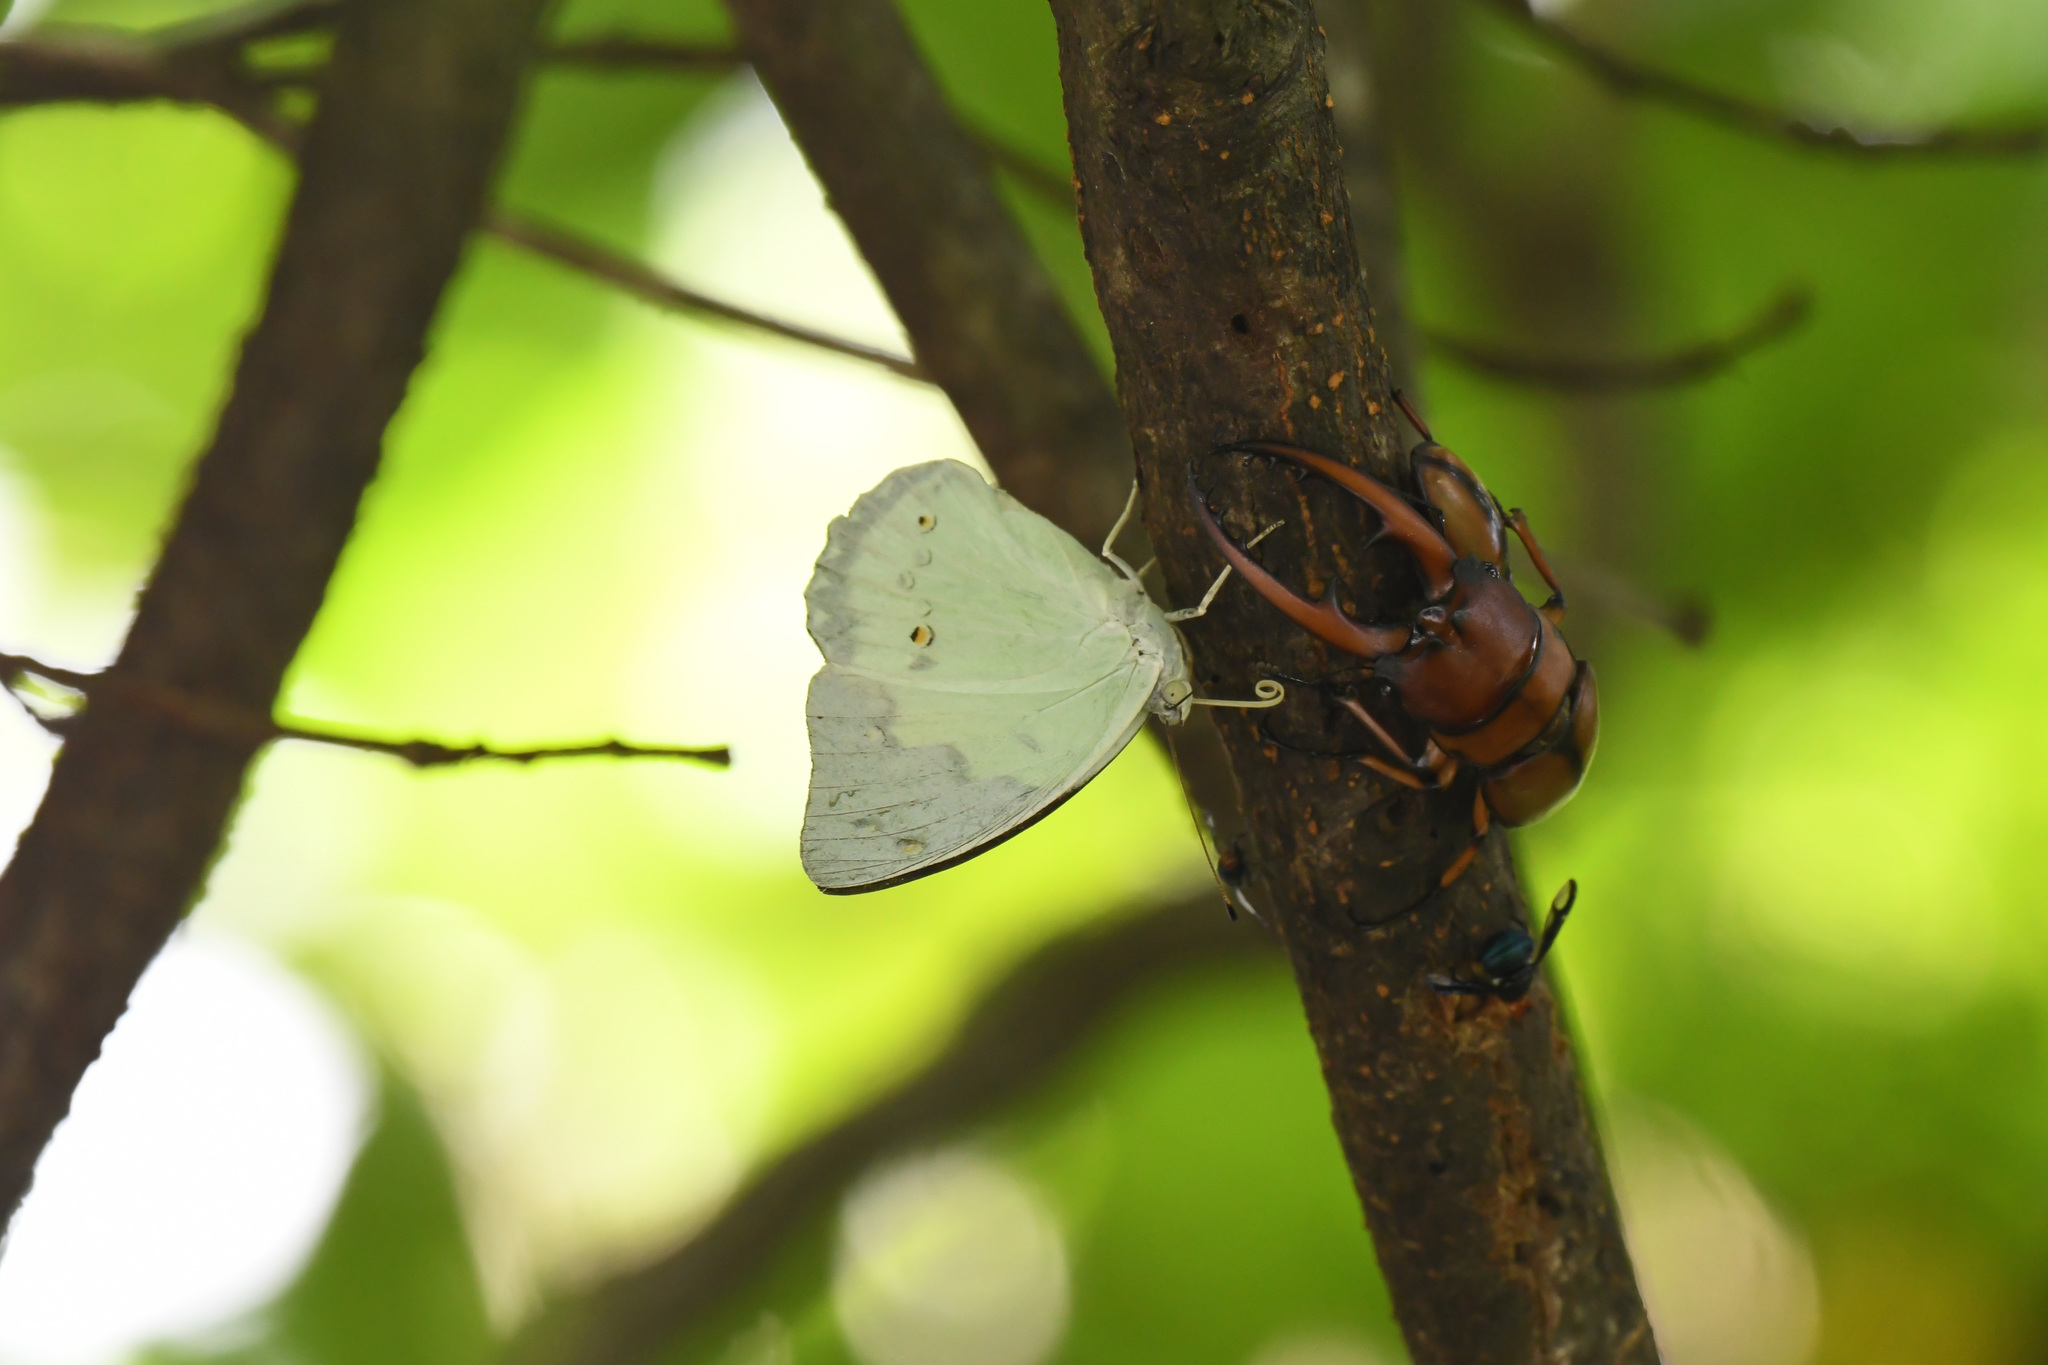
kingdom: Animalia
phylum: Arthropoda
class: Insecta
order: Lepidoptera
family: Nymphalidae
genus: Helcyra
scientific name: Helcyra superba
